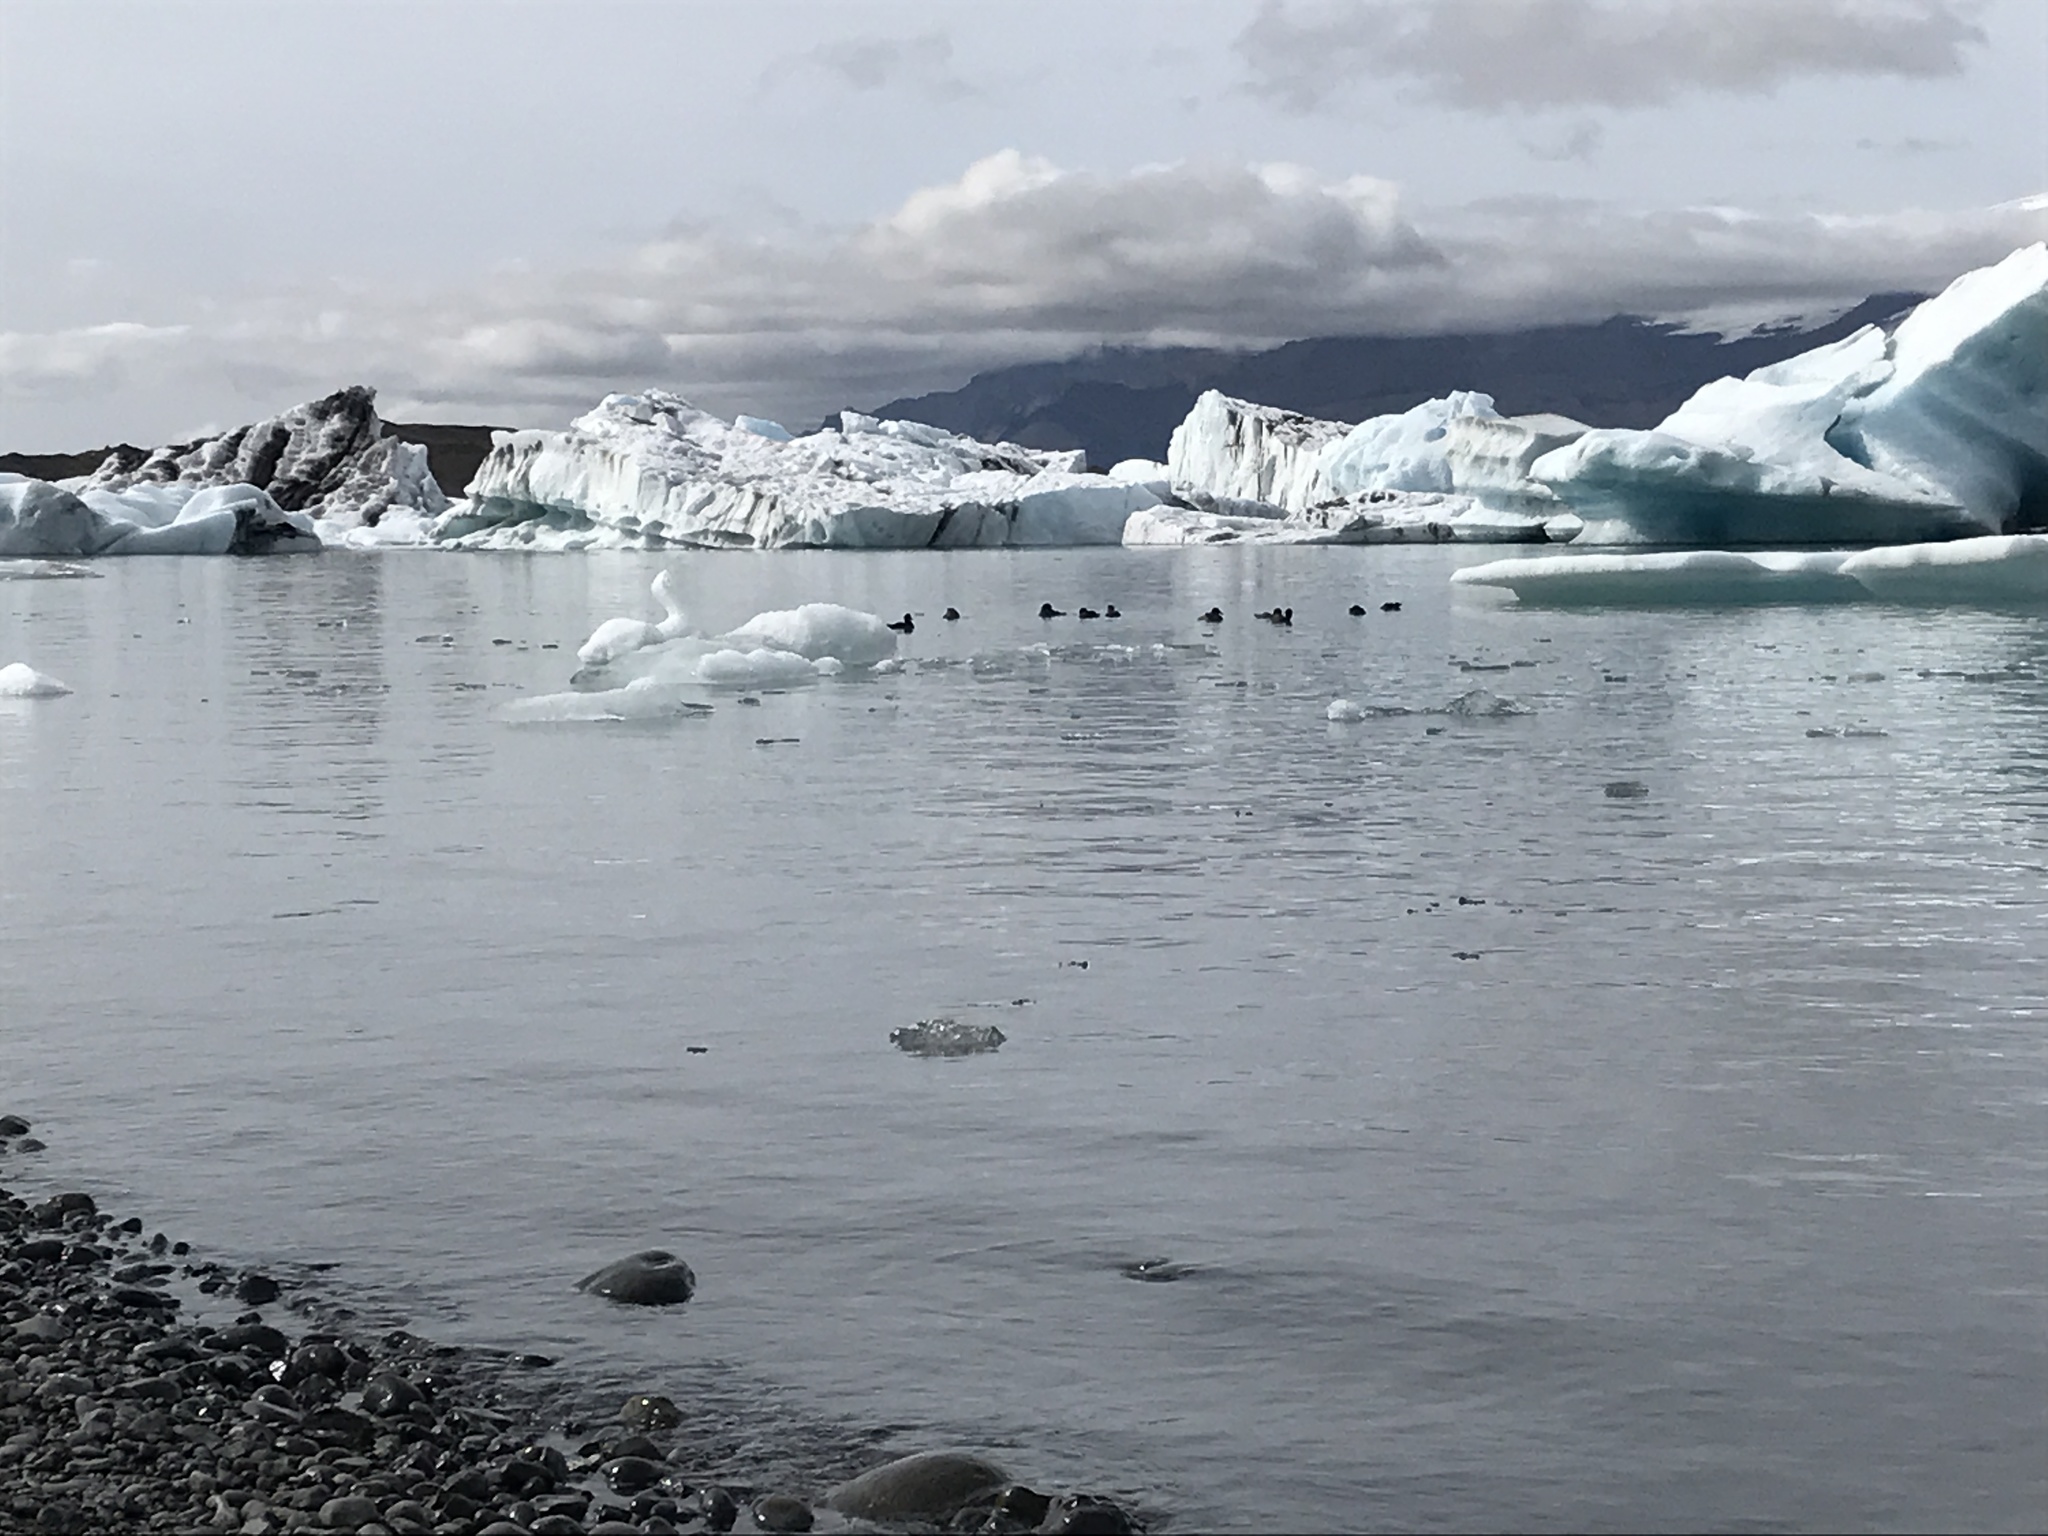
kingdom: Animalia
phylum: Chordata
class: Aves
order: Anseriformes
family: Anatidae
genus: Somateria
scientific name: Somateria mollissima
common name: Common eider
